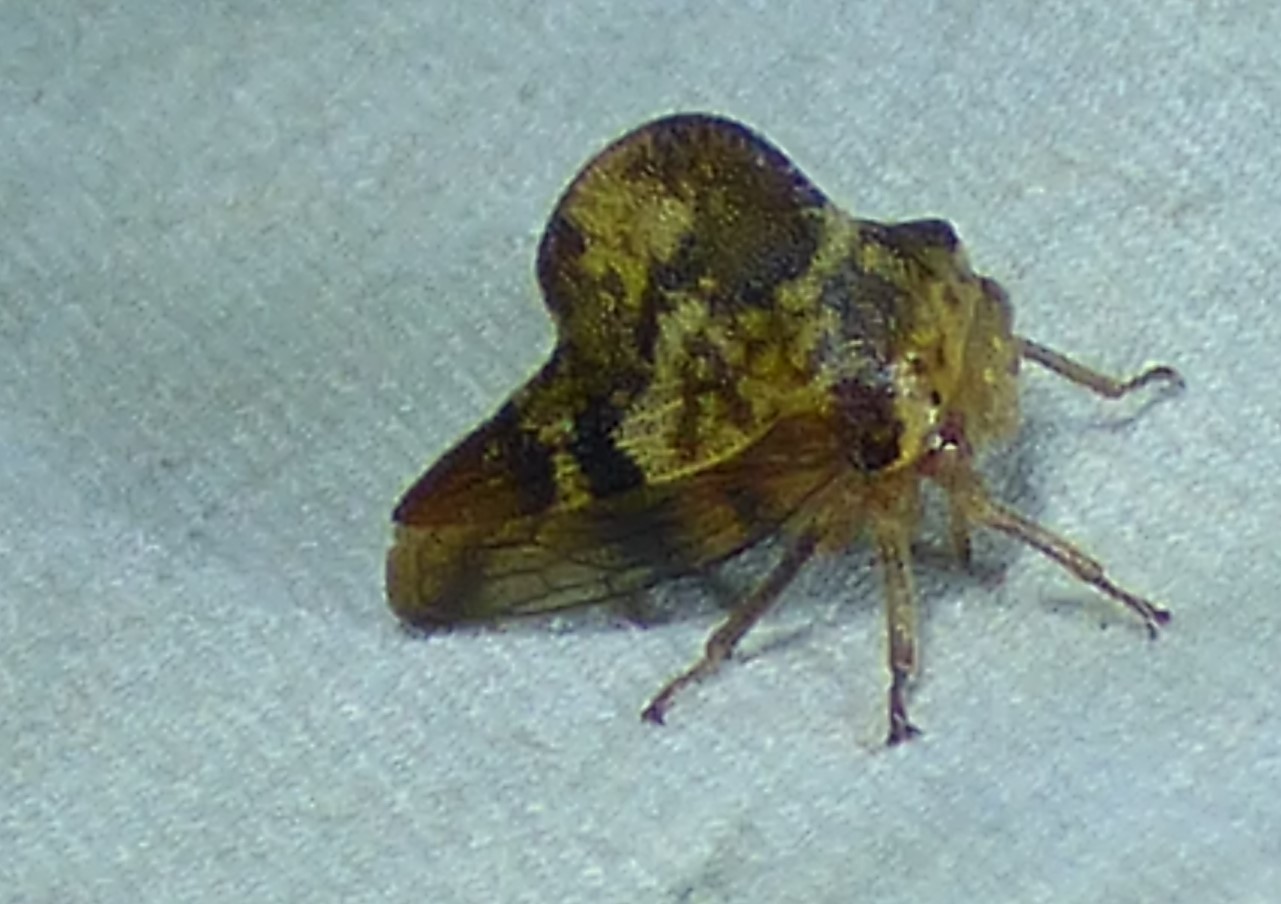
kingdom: Animalia
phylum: Arthropoda
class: Insecta
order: Hemiptera
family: Membracidae
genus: Telamona
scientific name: Telamona maculata
